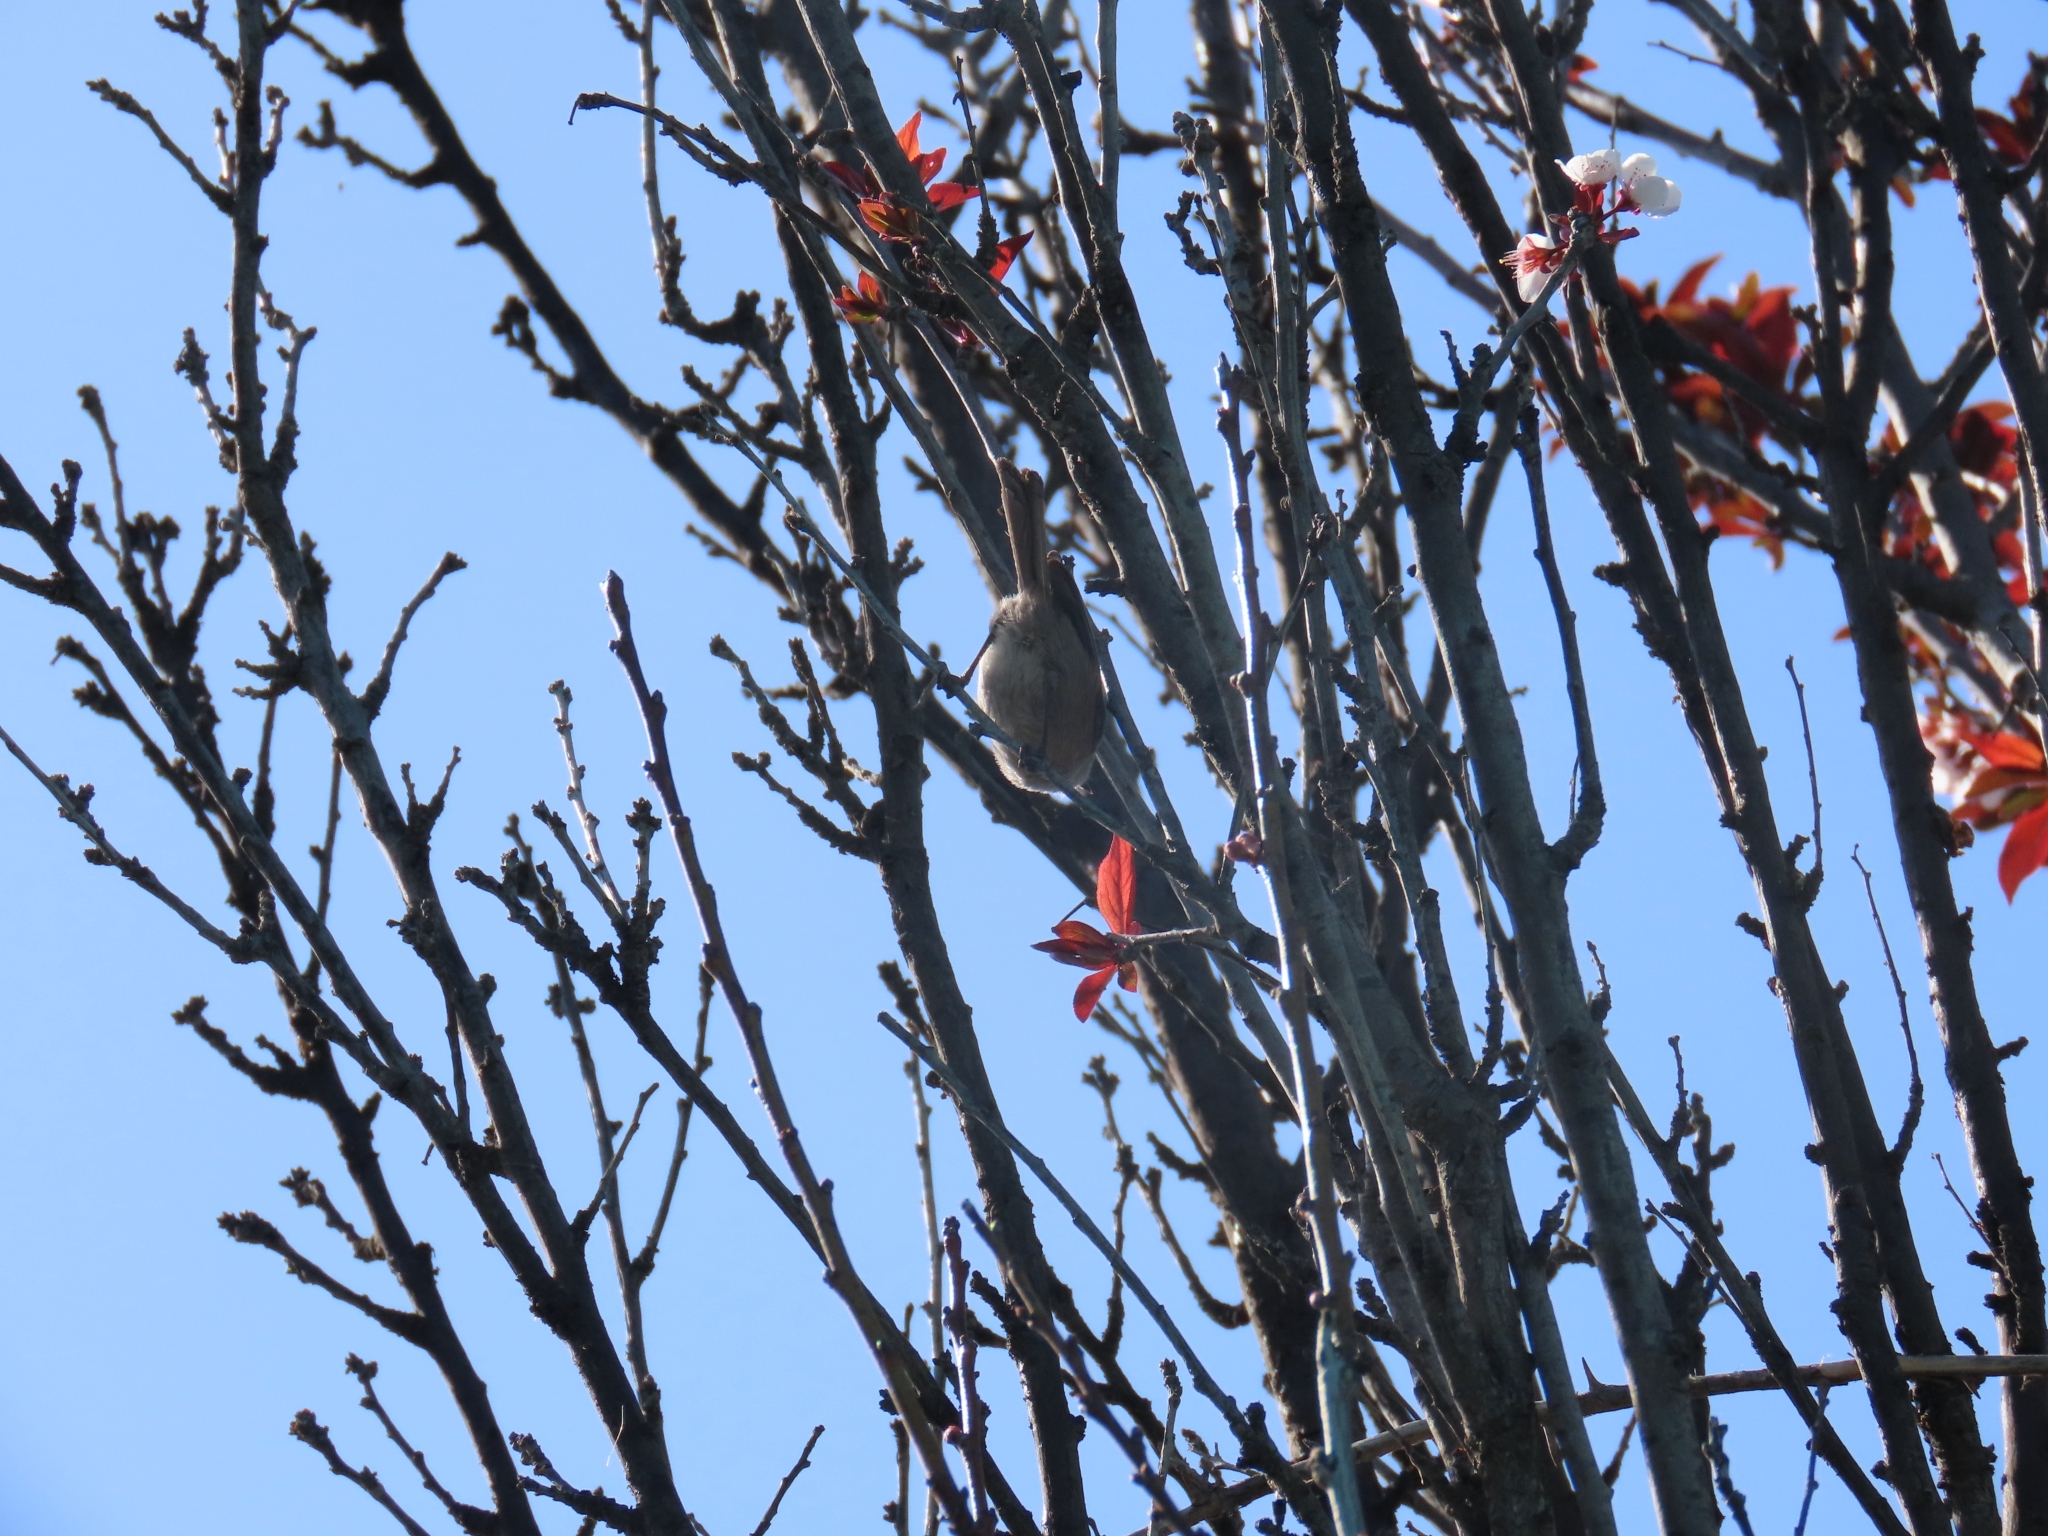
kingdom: Animalia
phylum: Chordata
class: Aves
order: Passeriformes
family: Aegithalidae
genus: Psaltriparus
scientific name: Psaltriparus minimus
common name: American bushtit
